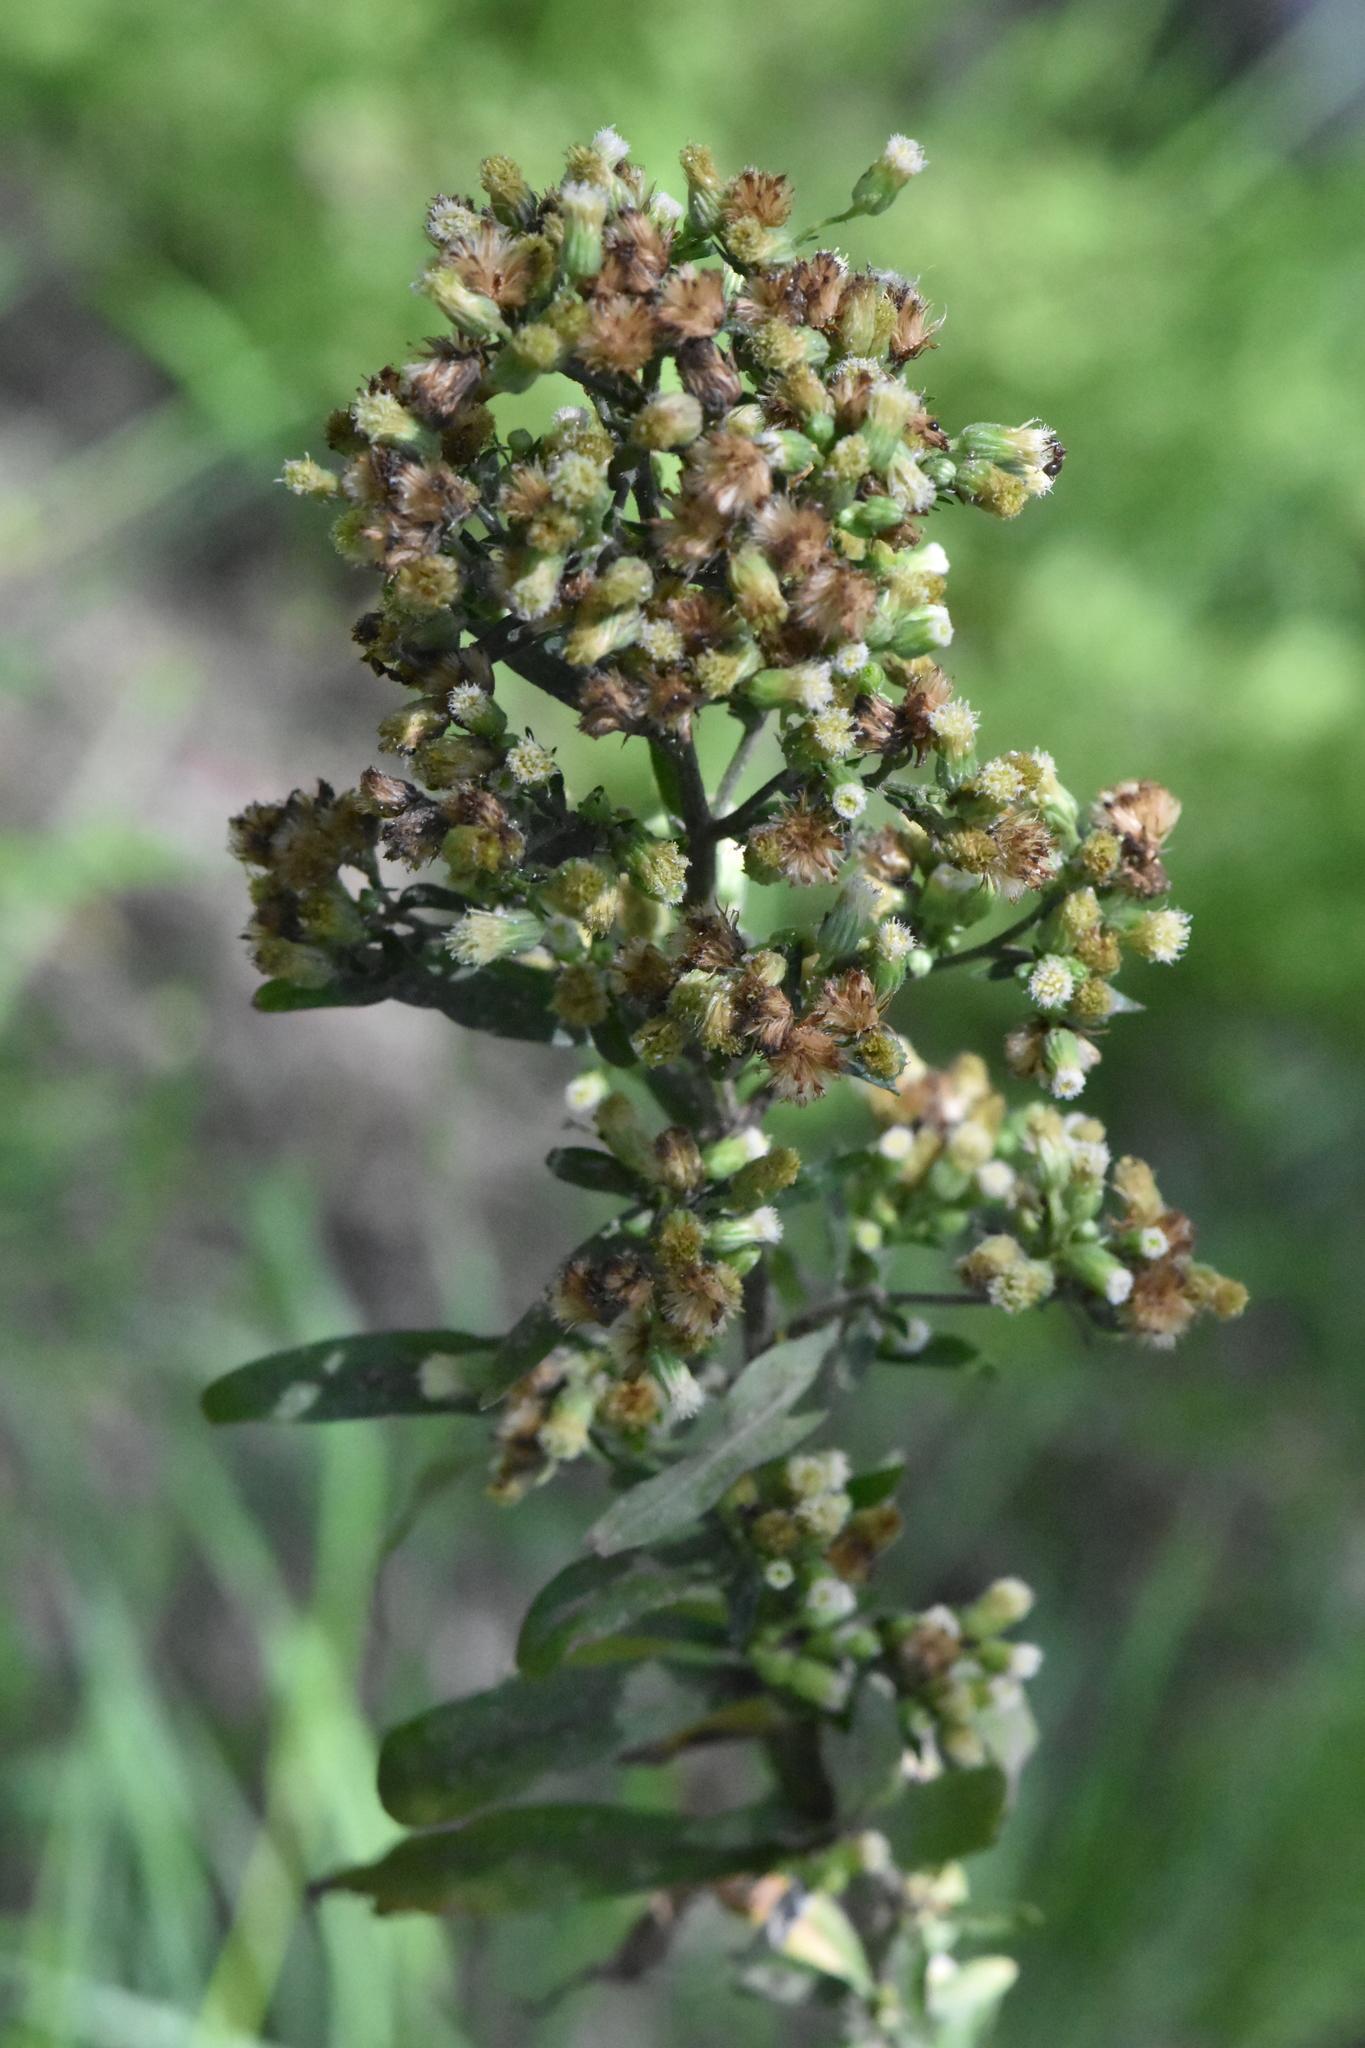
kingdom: Plantae
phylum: Tracheophyta
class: Magnoliopsida
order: Asterales
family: Asteraceae
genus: Erigeron
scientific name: Erigeron sumatrensis
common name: Daisy
